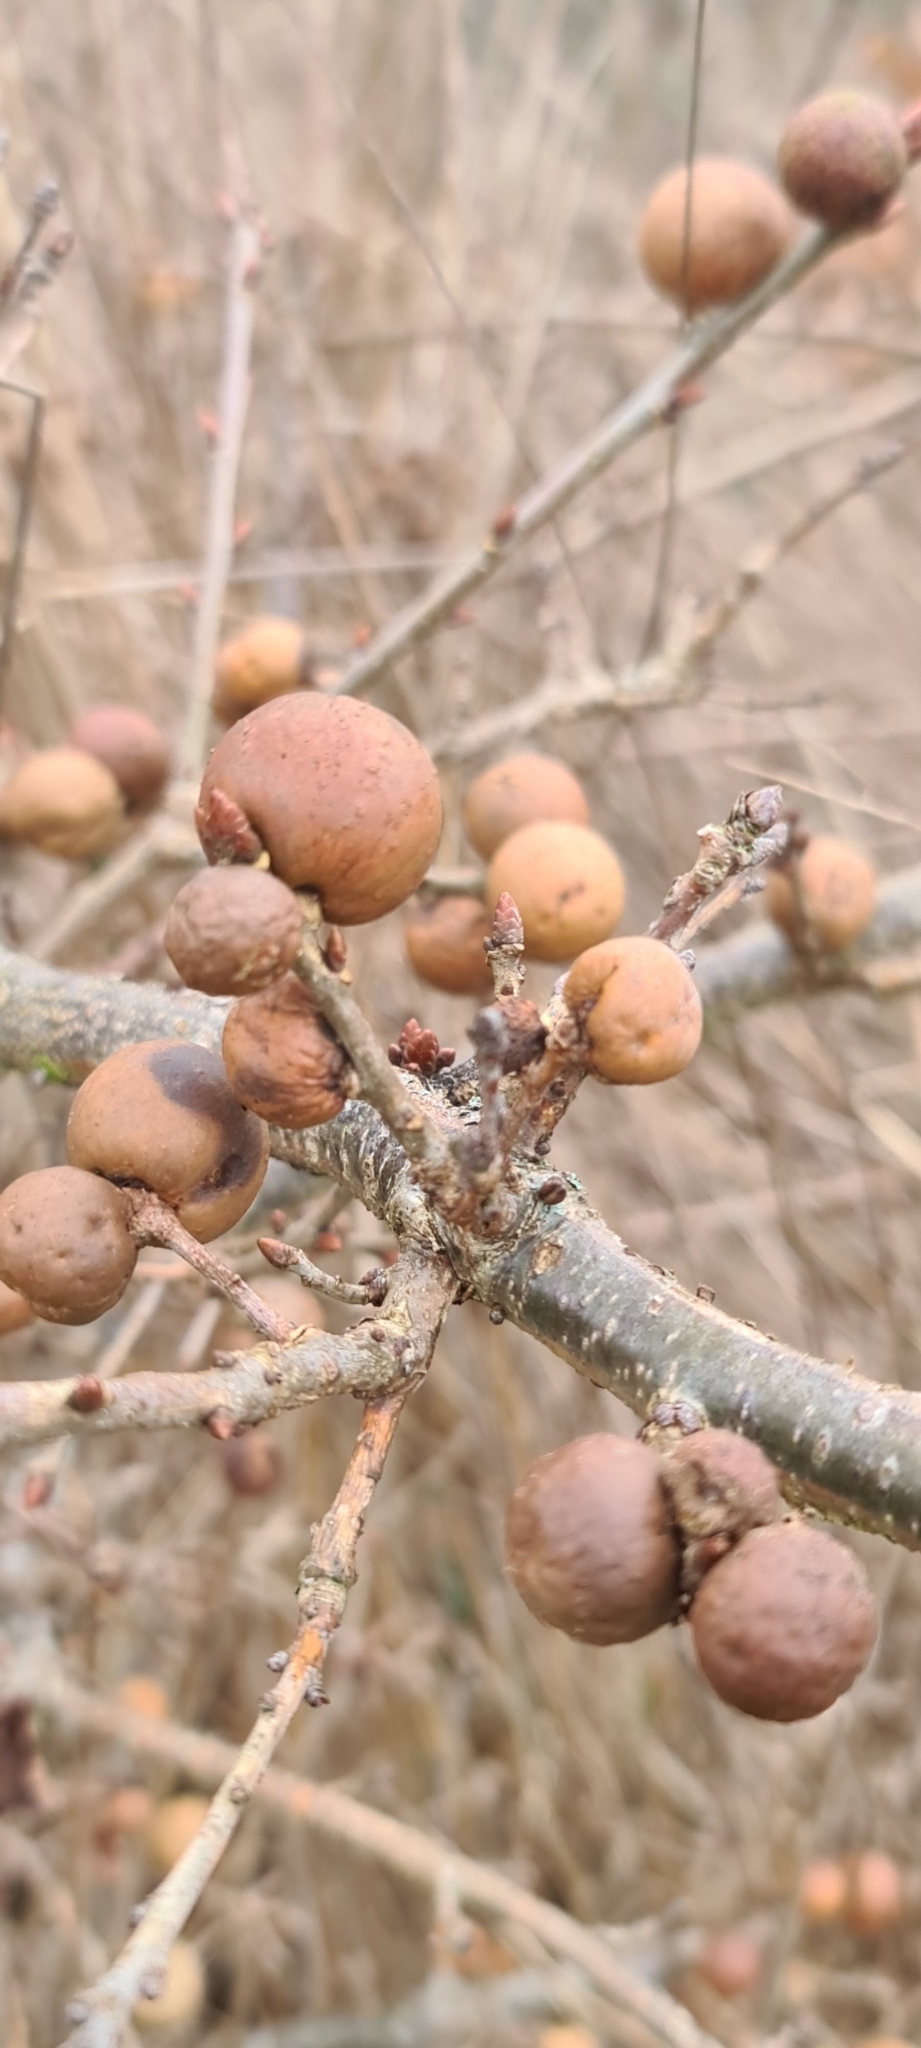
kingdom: Animalia
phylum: Arthropoda
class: Insecta
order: Hymenoptera
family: Cynipidae
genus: Andricus
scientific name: Andricus kollari
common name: Marble gall
